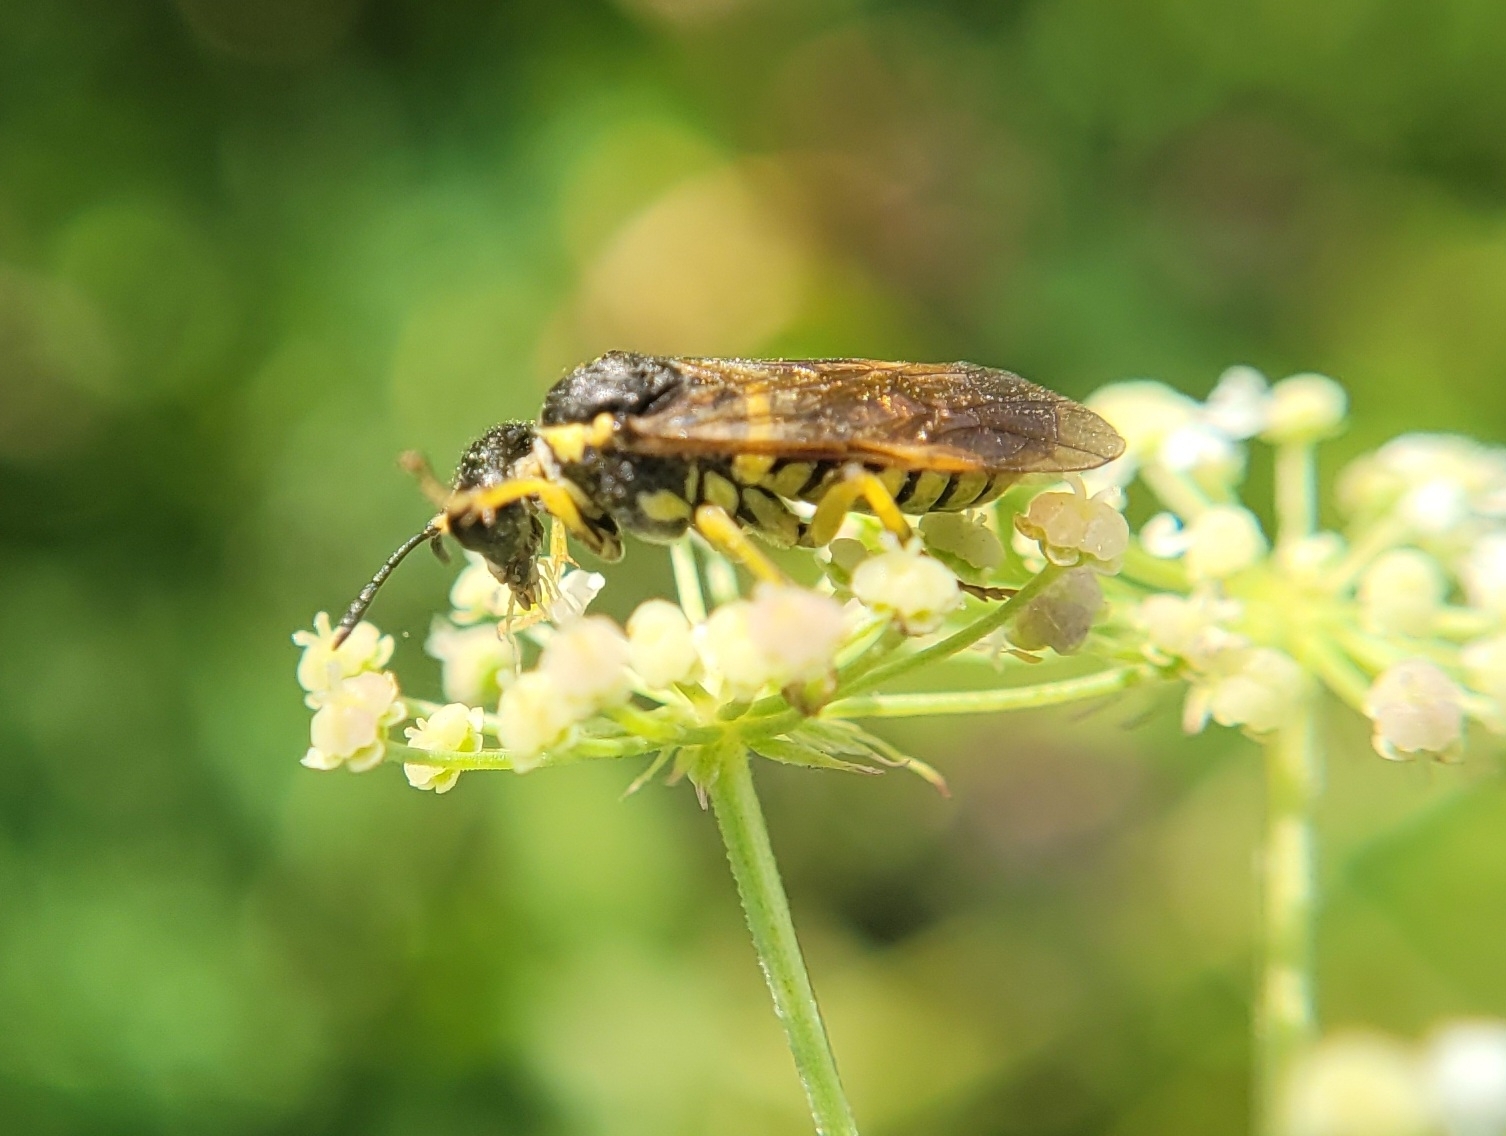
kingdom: Animalia
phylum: Arthropoda
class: Insecta
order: Hymenoptera
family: Tenthredinidae
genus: Tenthredo
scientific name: Tenthredo notha
